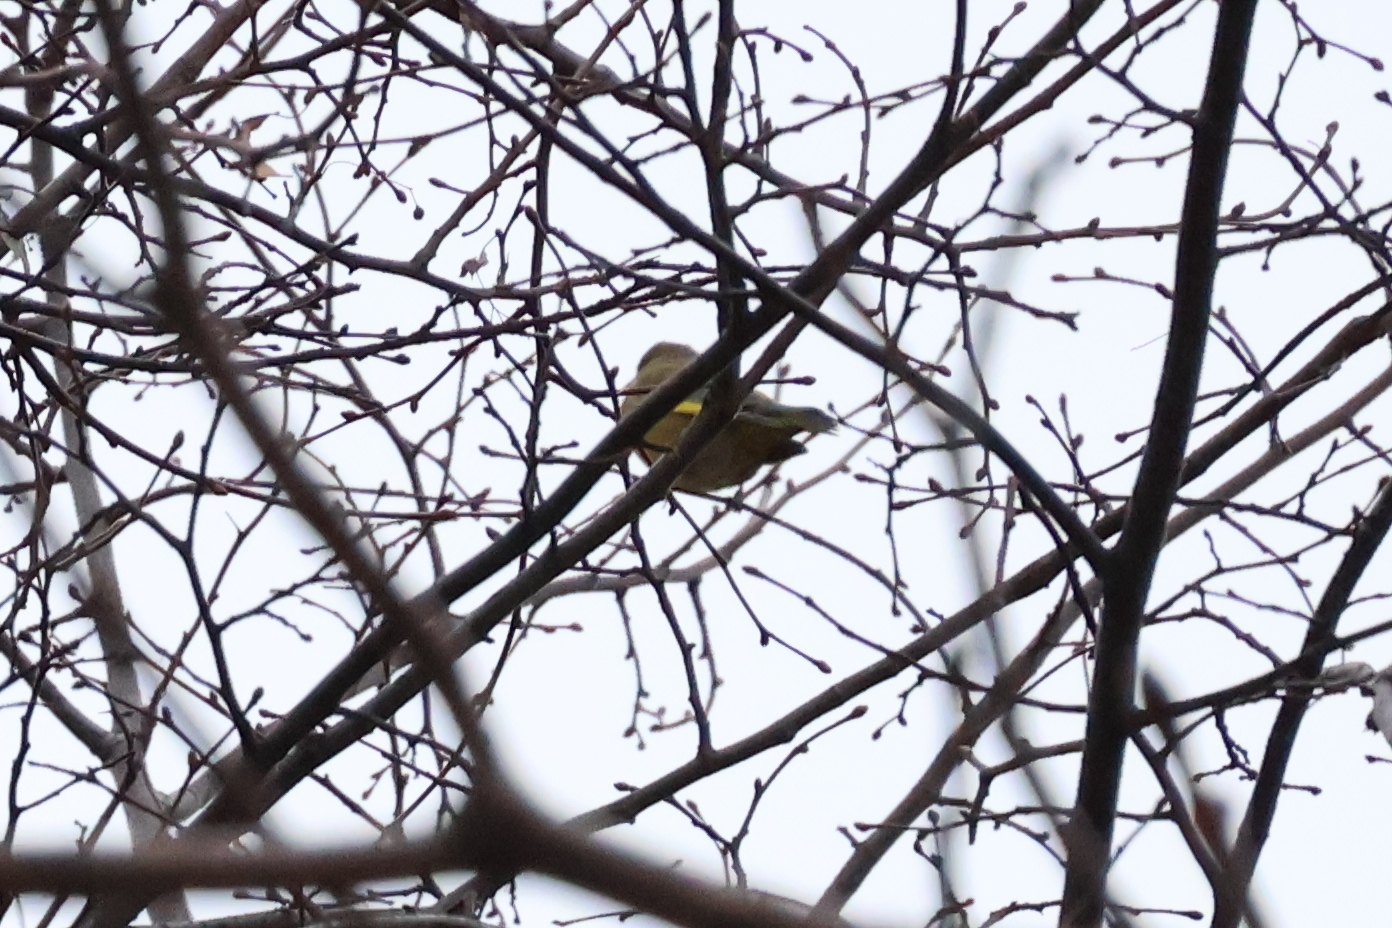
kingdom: Plantae
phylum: Tracheophyta
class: Liliopsida
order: Poales
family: Poaceae
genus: Chloris
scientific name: Chloris chloris
